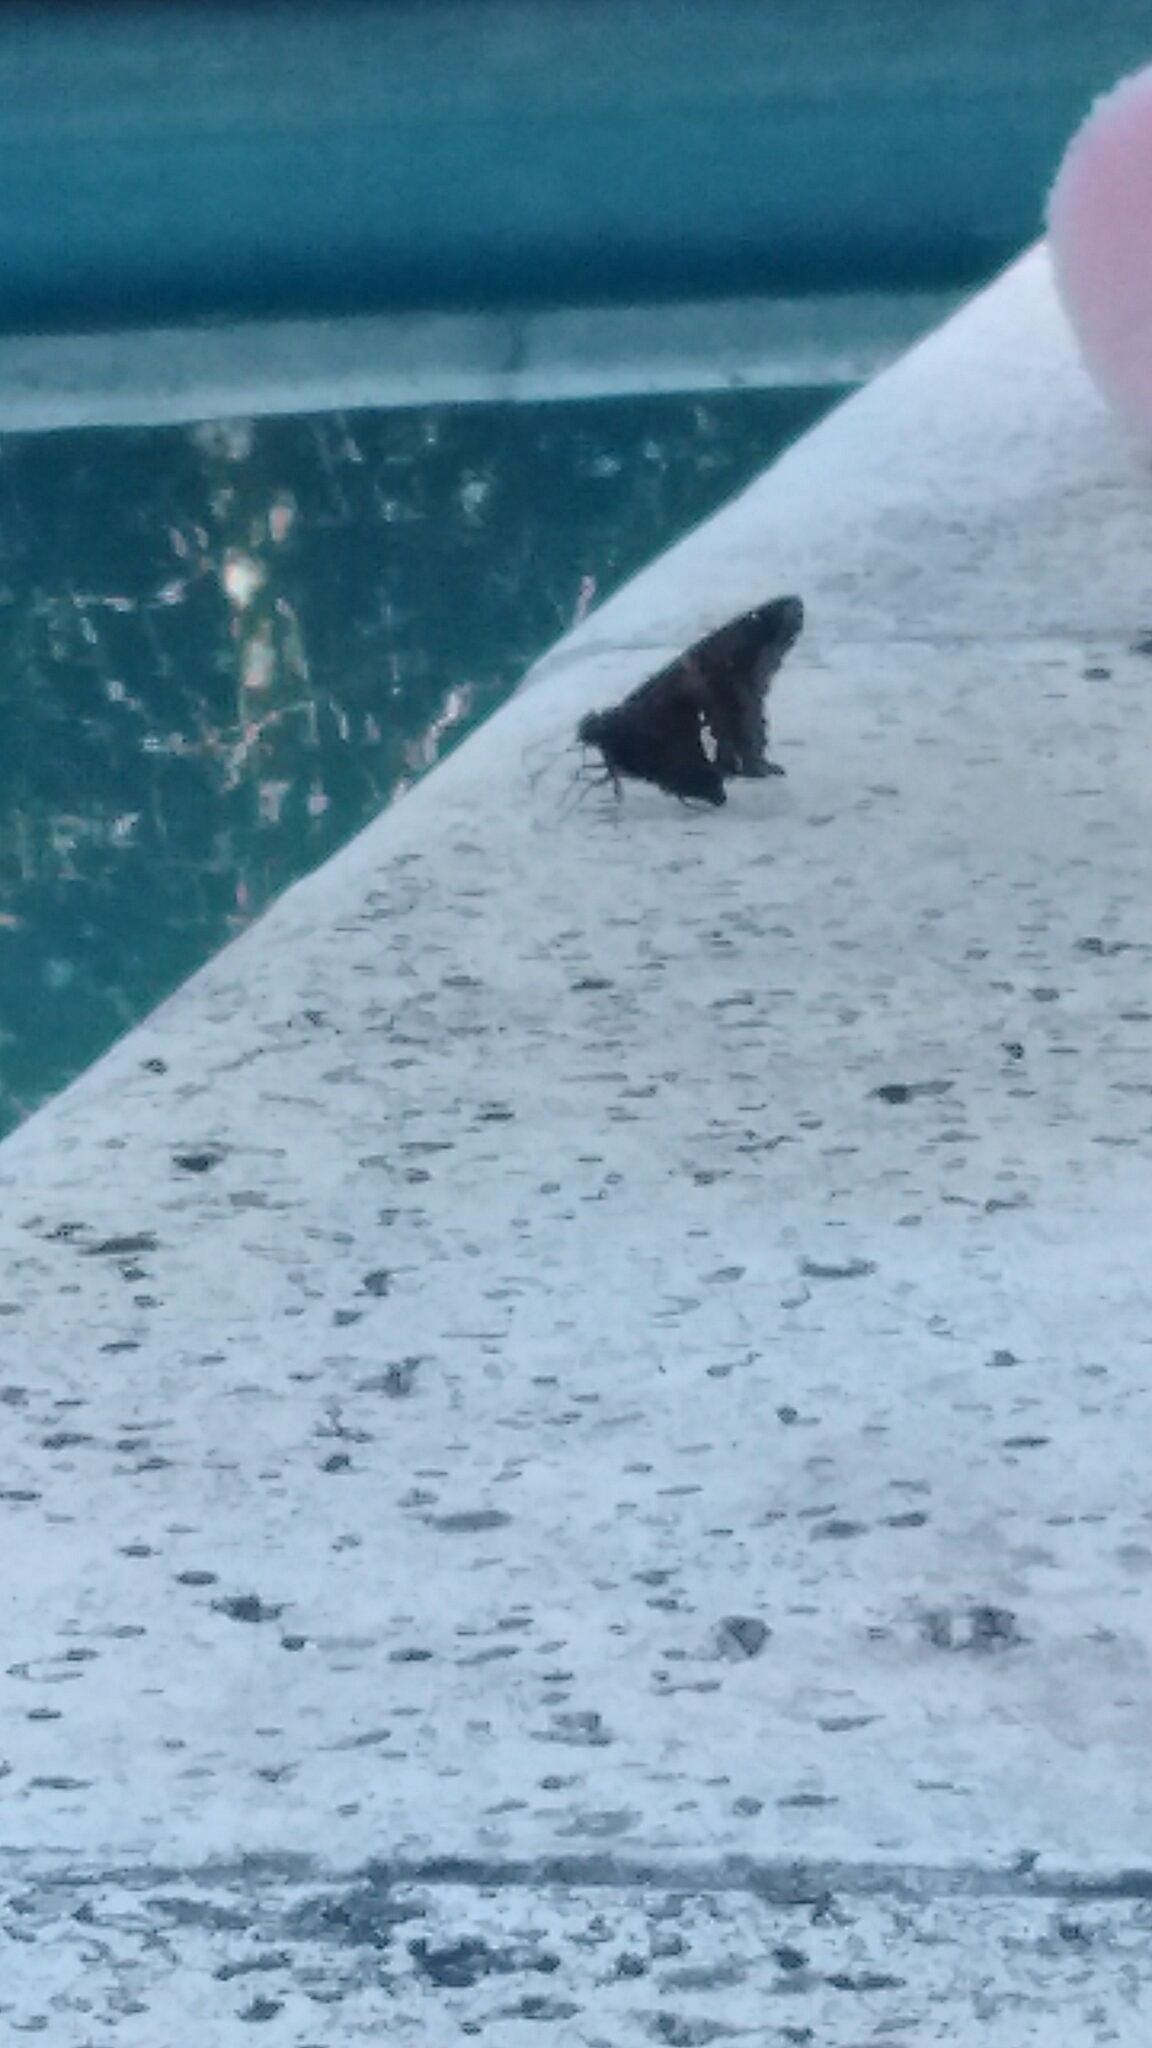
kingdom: Animalia
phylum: Arthropoda
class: Insecta
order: Lepidoptera
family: Hesperiidae
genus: Epargyreus
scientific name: Epargyreus tmolis
